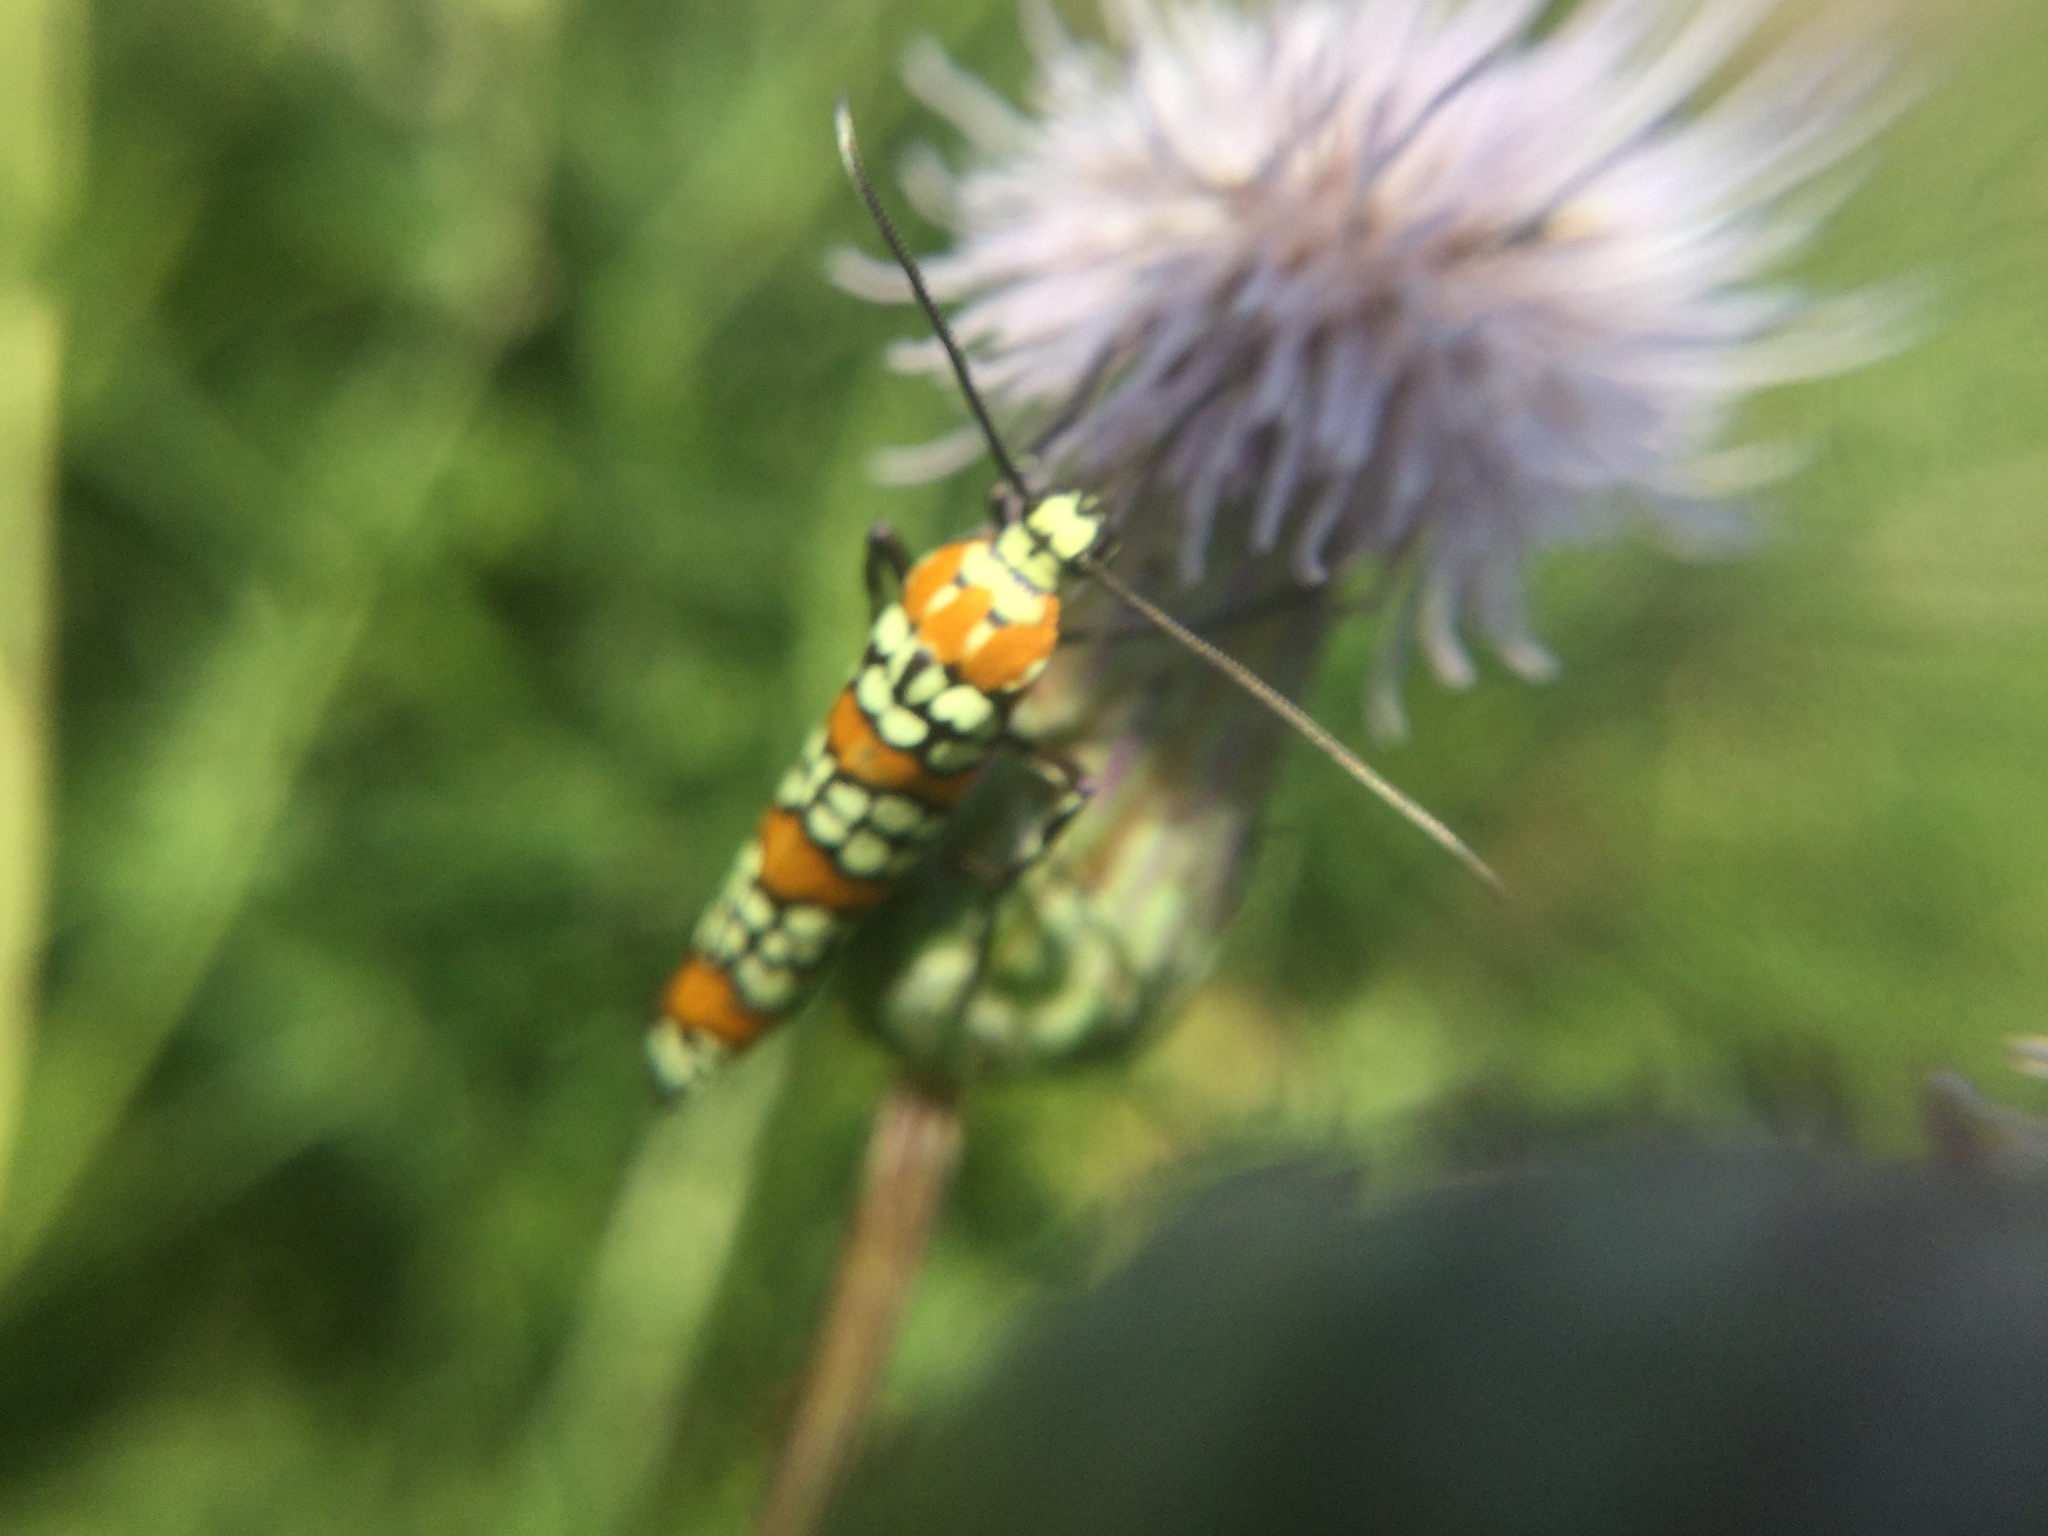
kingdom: Animalia
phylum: Arthropoda
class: Insecta
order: Lepidoptera
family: Attevidae
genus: Atteva
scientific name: Atteva punctella
